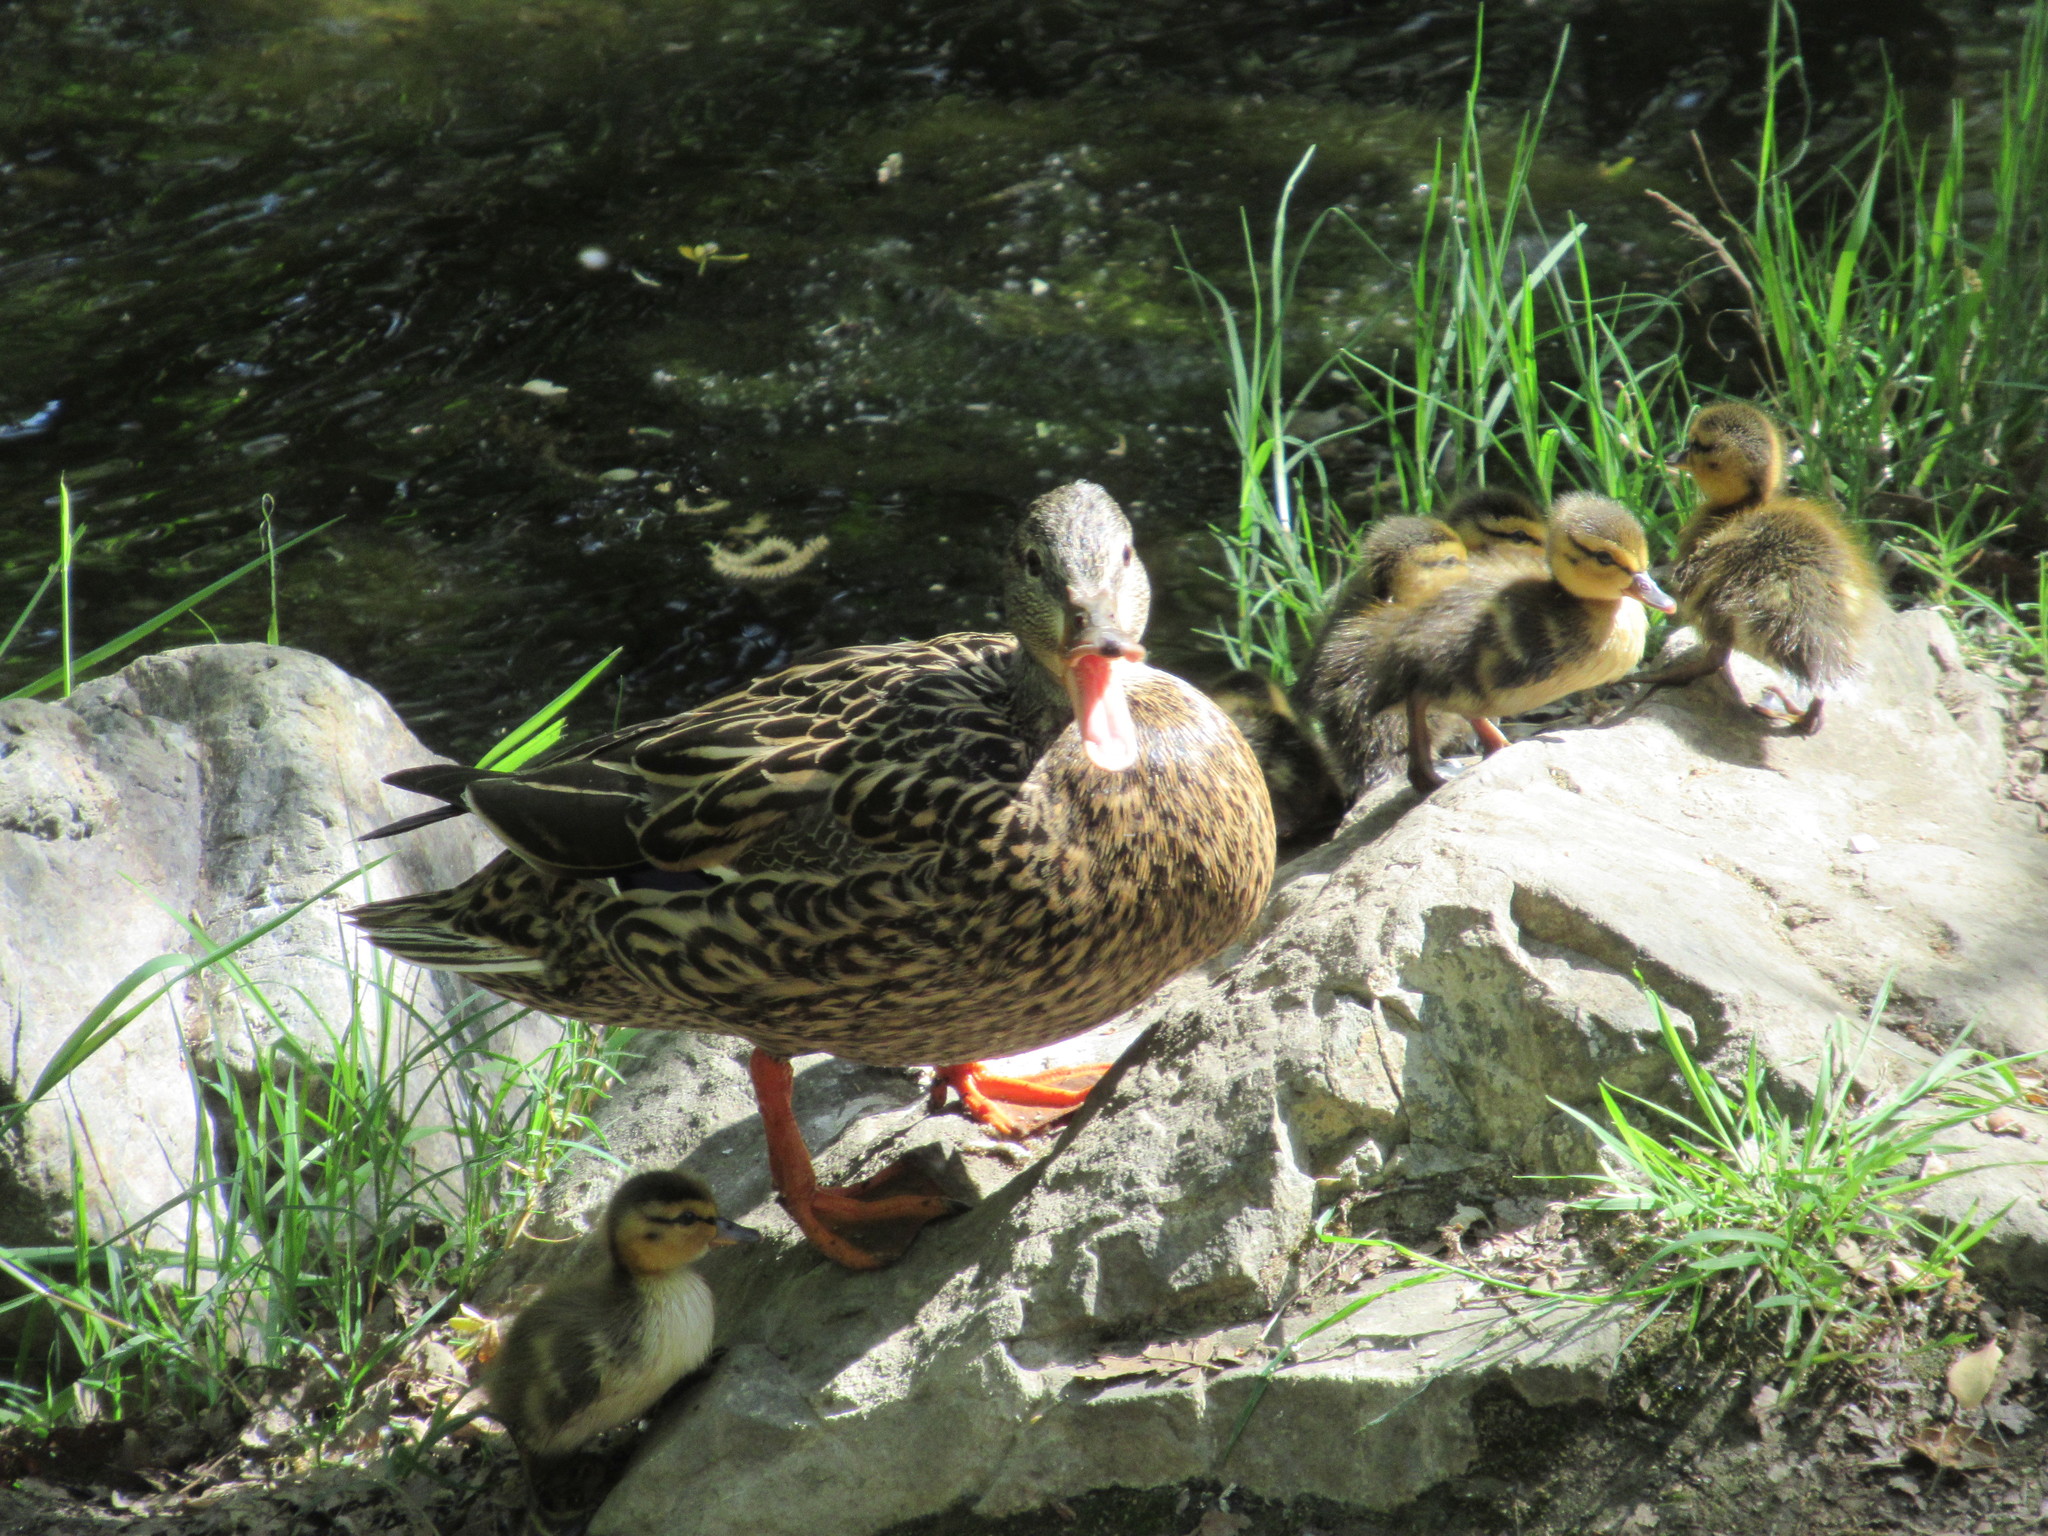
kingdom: Animalia
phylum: Chordata
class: Aves
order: Anseriformes
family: Anatidae
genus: Anas
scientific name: Anas platyrhynchos
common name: Mallard
